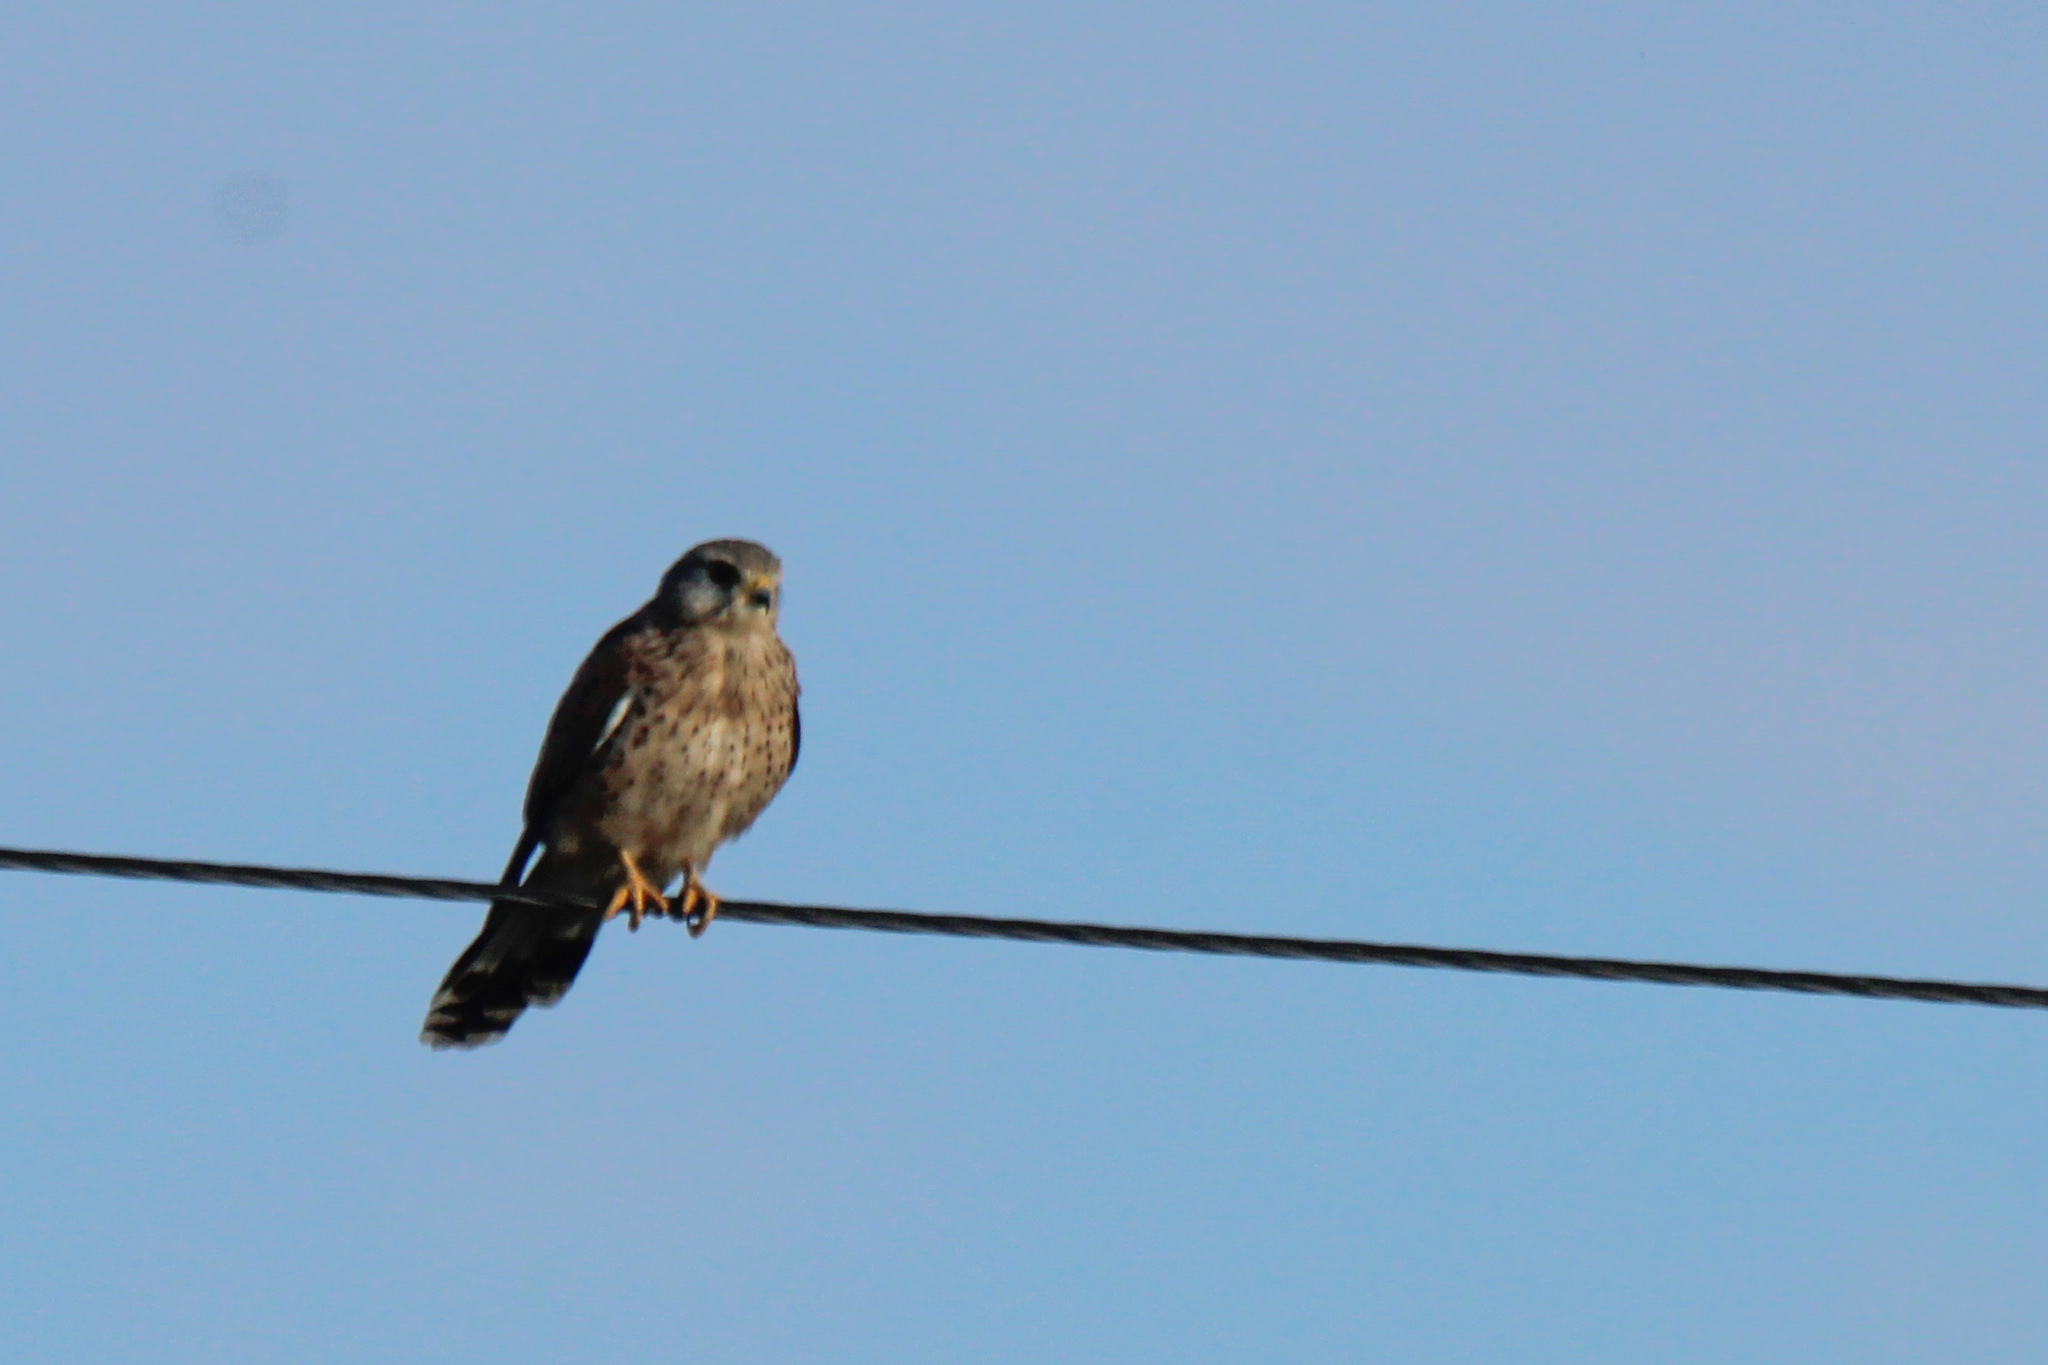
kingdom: Animalia
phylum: Chordata
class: Aves
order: Falconiformes
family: Falconidae
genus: Falco
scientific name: Falco tinnunculus
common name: Common kestrel
